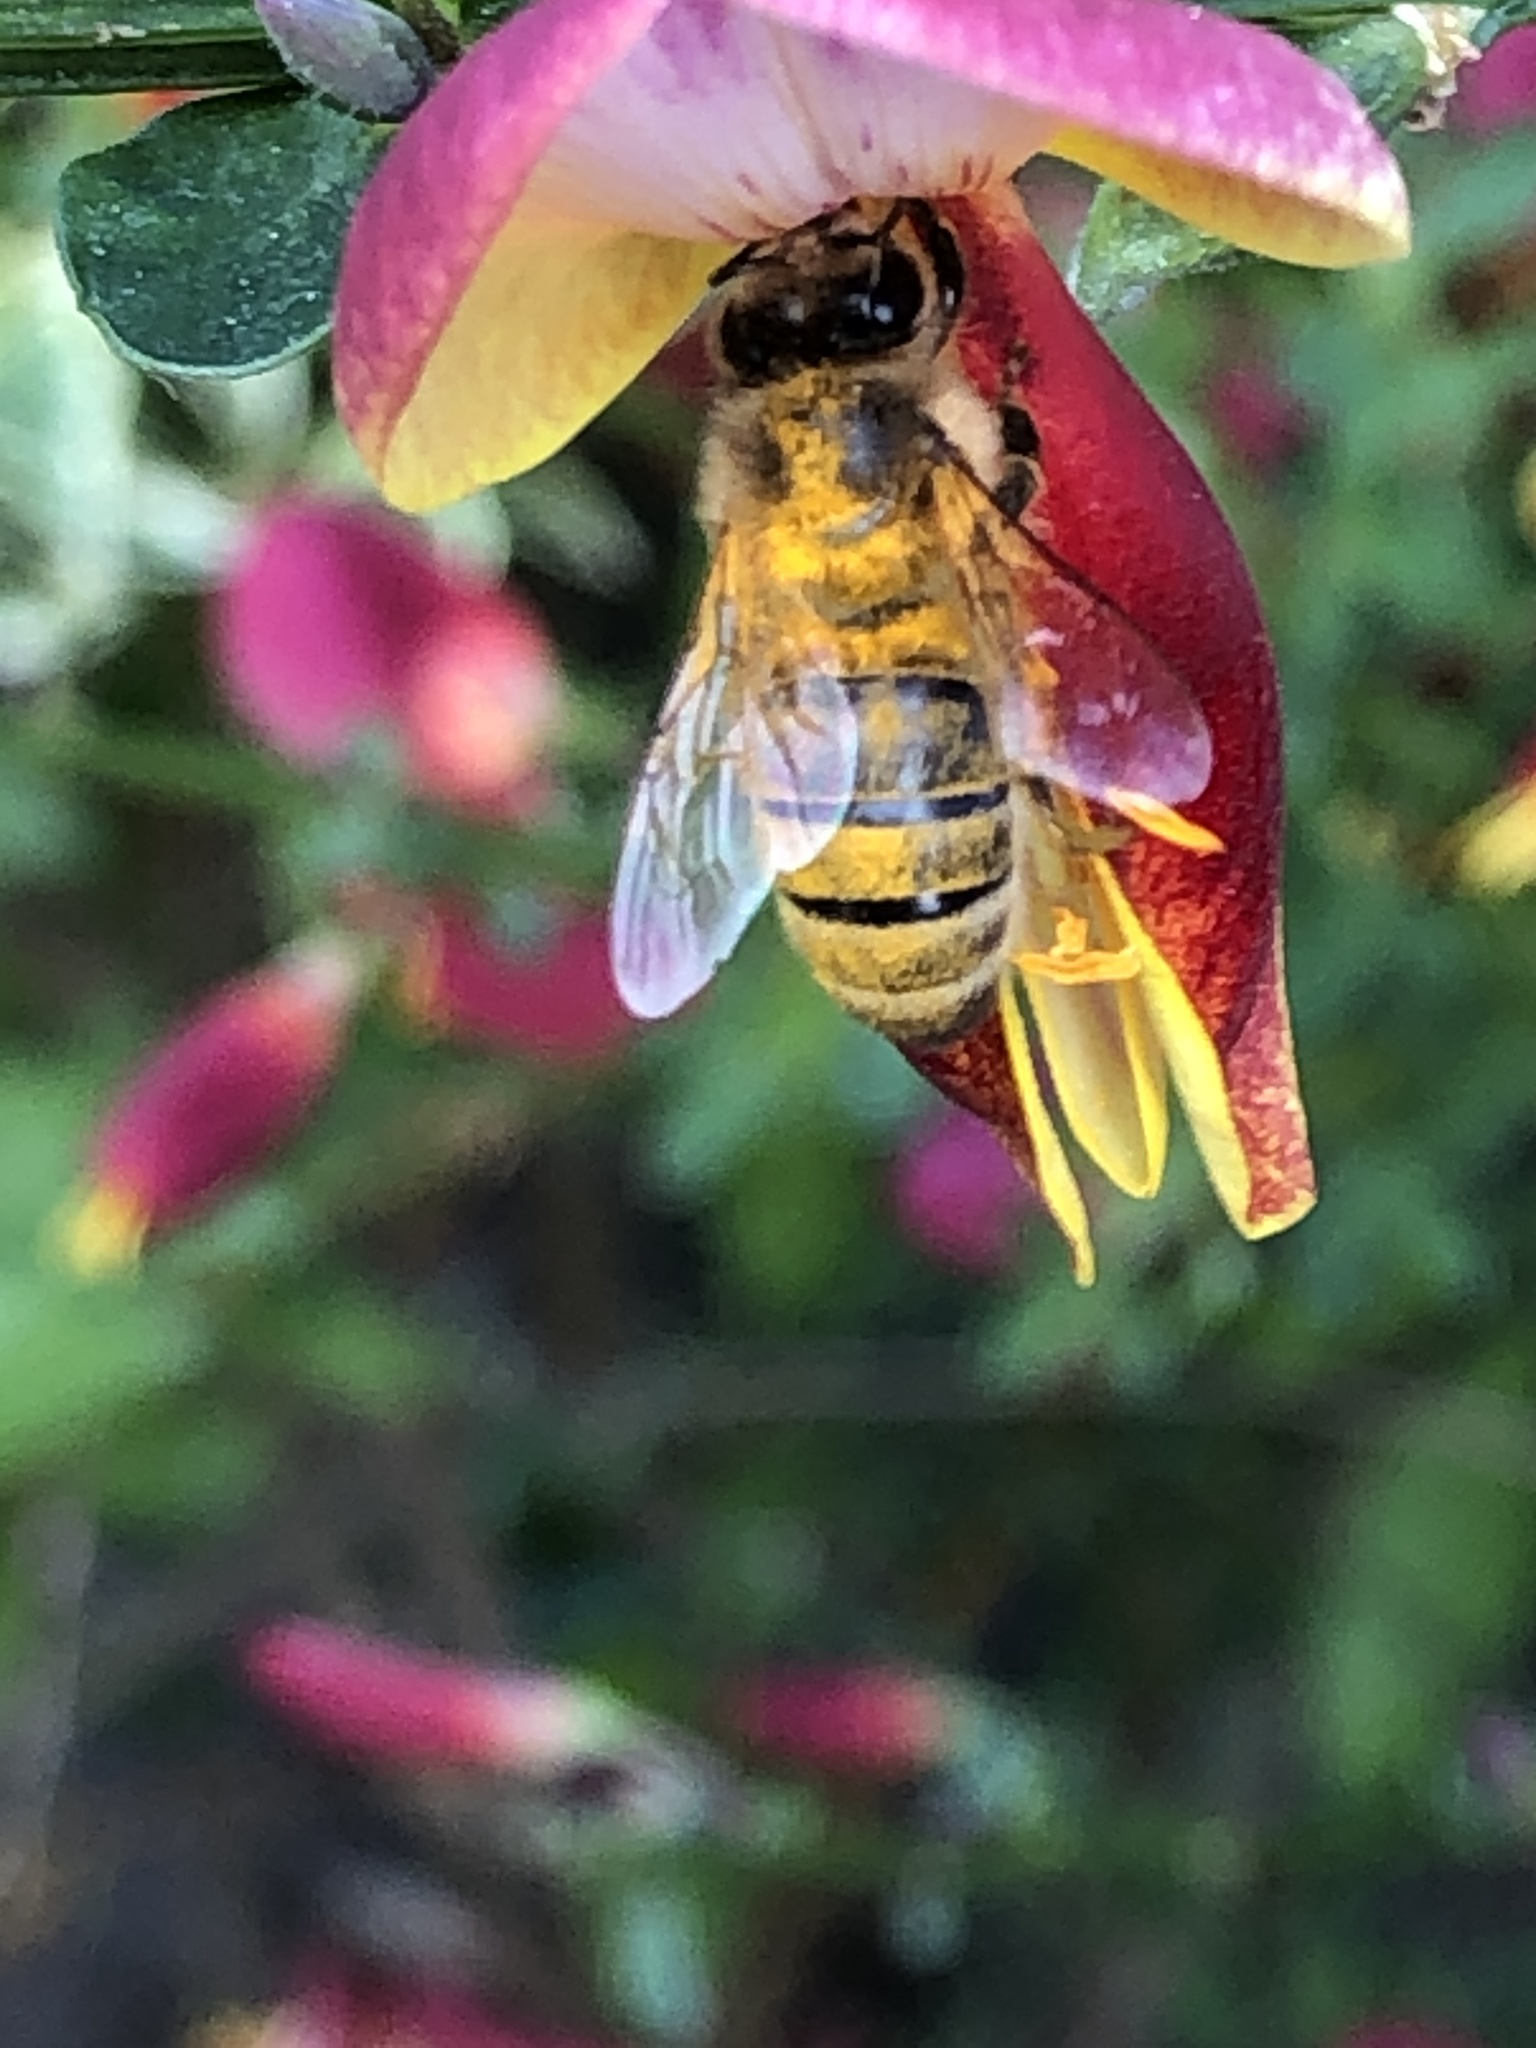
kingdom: Animalia
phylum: Arthropoda
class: Insecta
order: Hymenoptera
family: Apidae
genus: Apis
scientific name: Apis mellifera
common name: Honey bee
